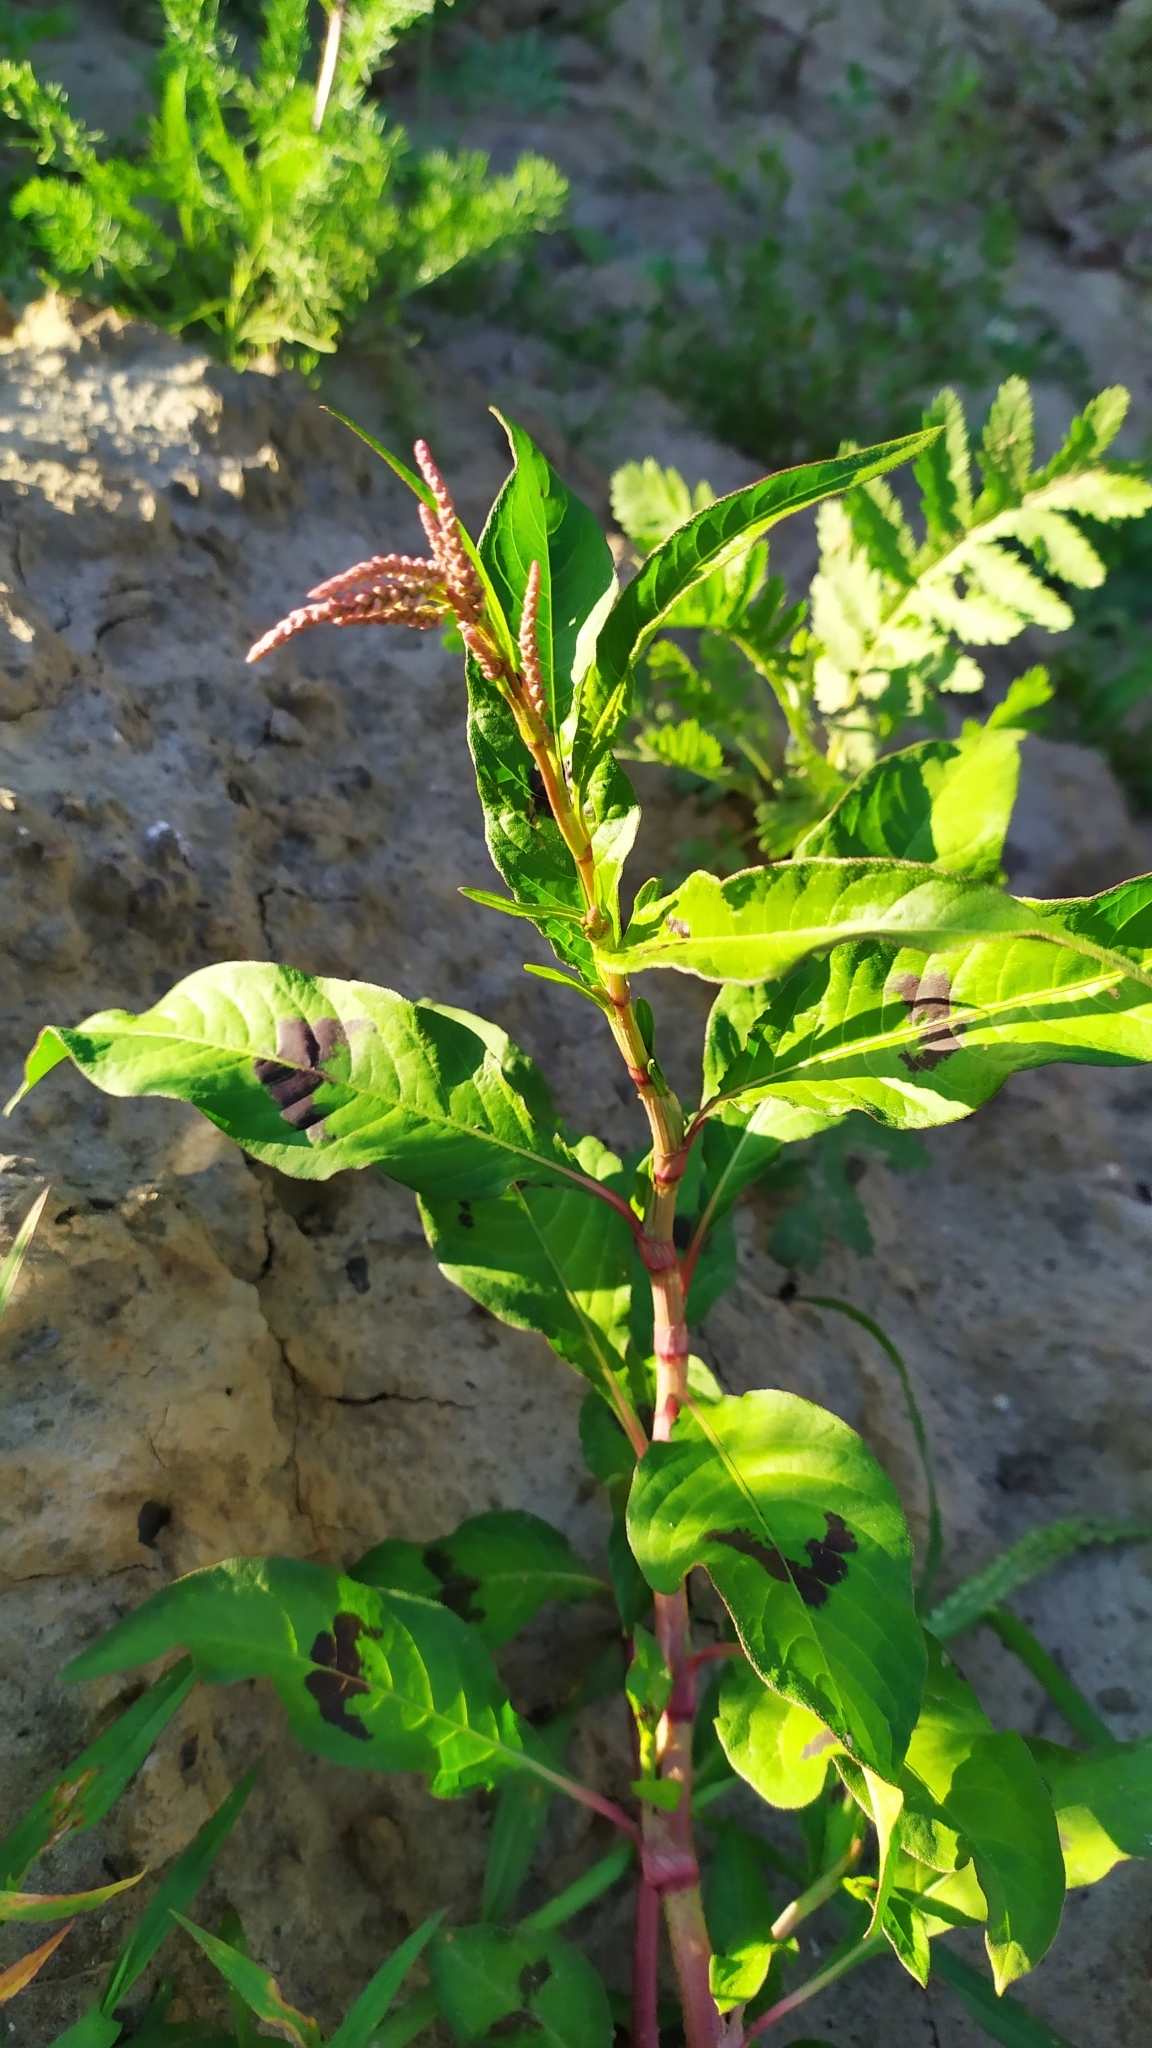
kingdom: Plantae
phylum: Tracheophyta
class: Magnoliopsida
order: Caryophyllales
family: Polygonaceae
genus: Persicaria
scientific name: Persicaria lapathifolia
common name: Curlytop knotweed
